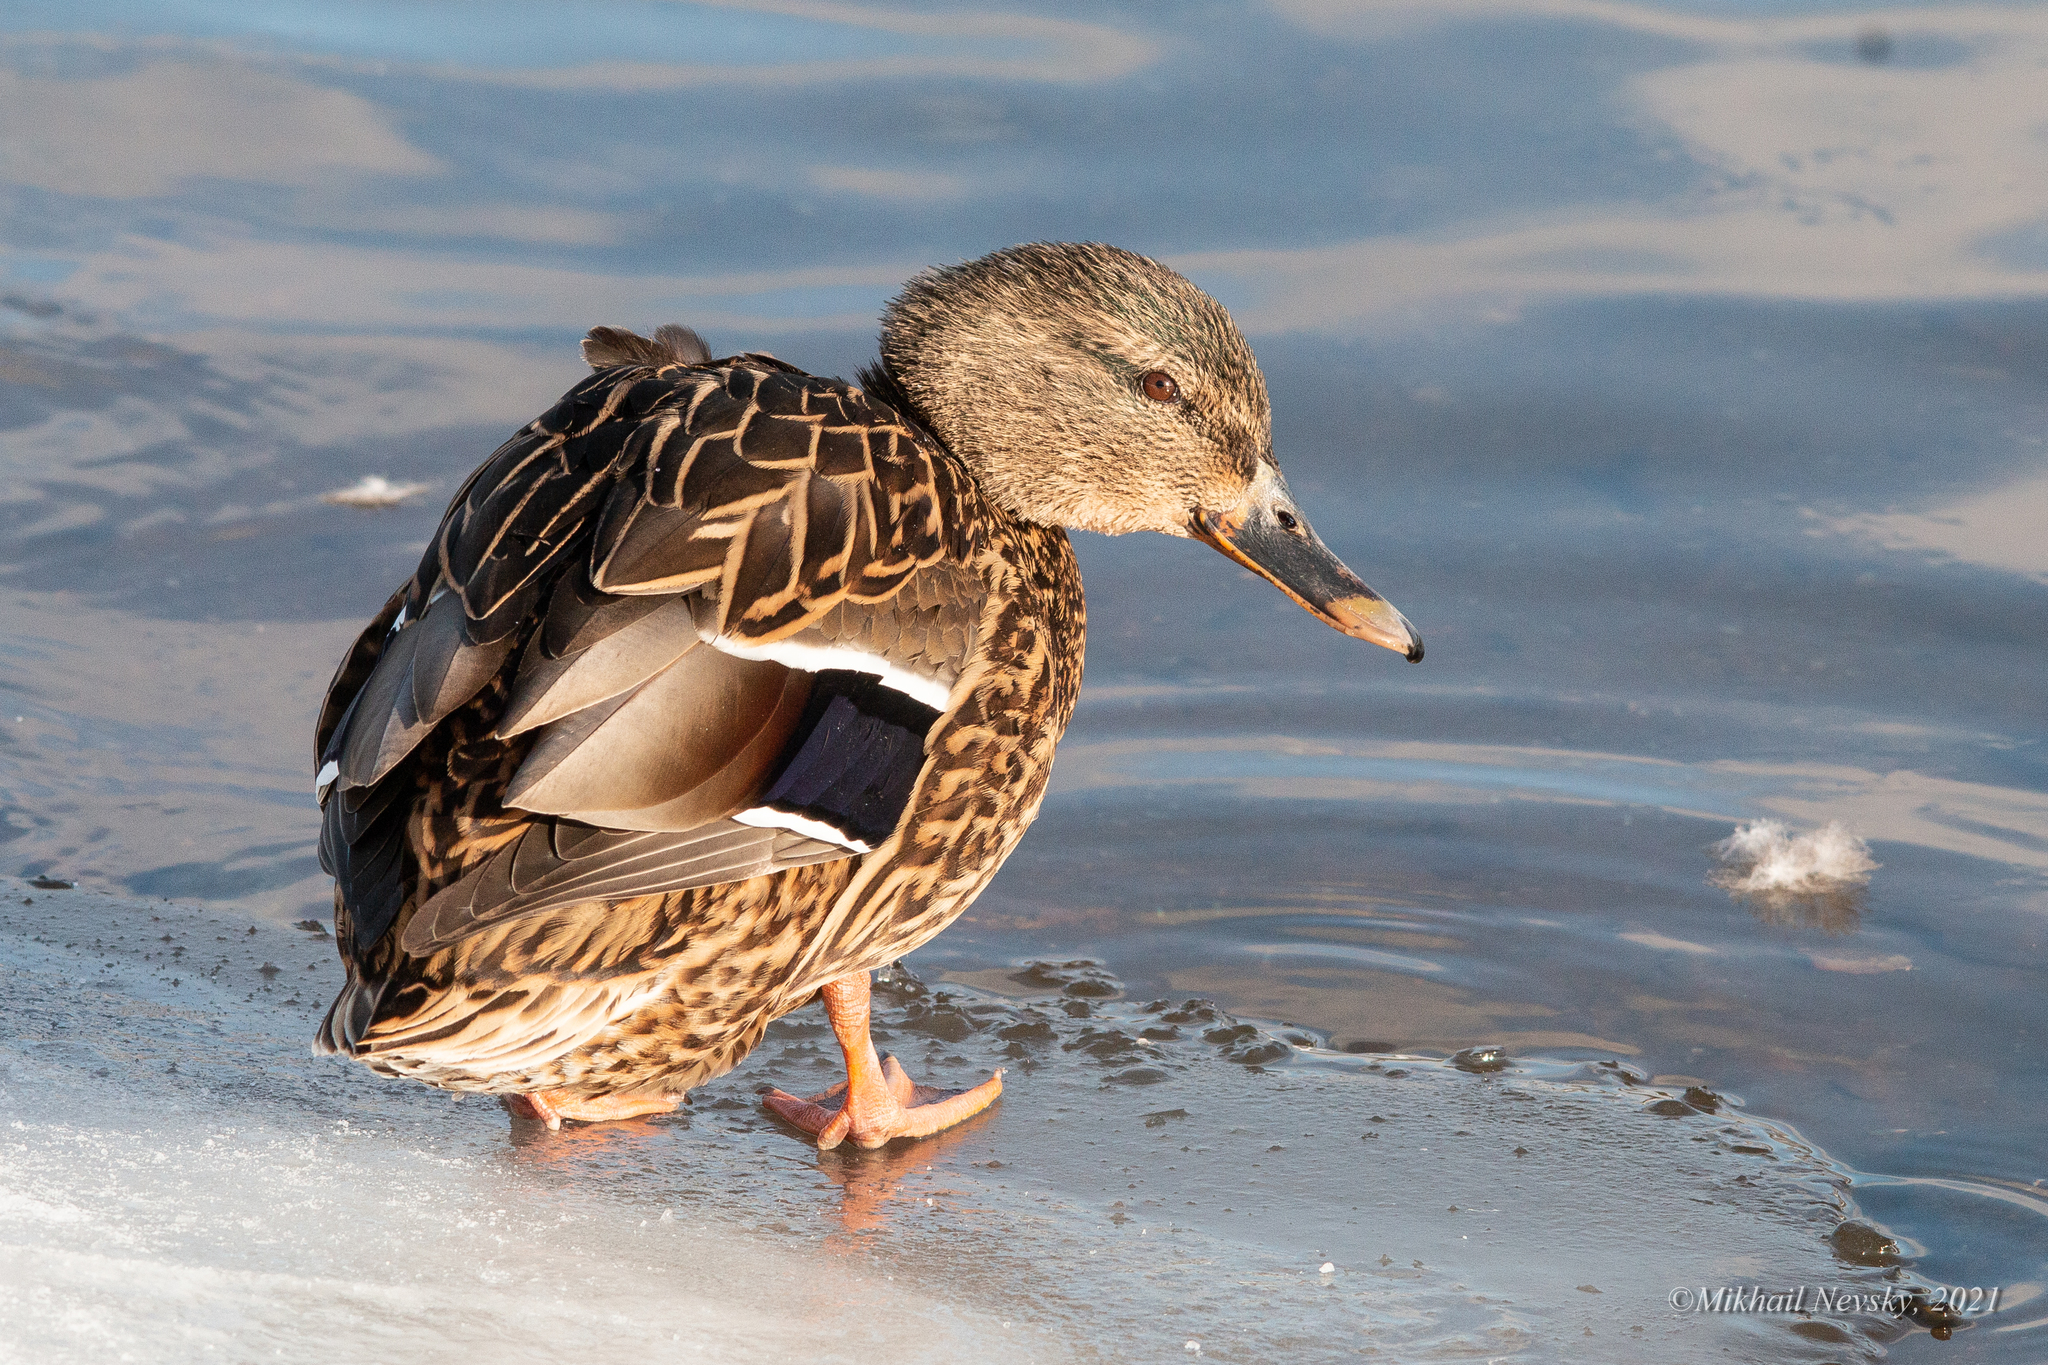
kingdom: Animalia
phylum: Chordata
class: Aves
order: Anseriformes
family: Anatidae
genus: Anas
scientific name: Anas platyrhynchos
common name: Mallard
